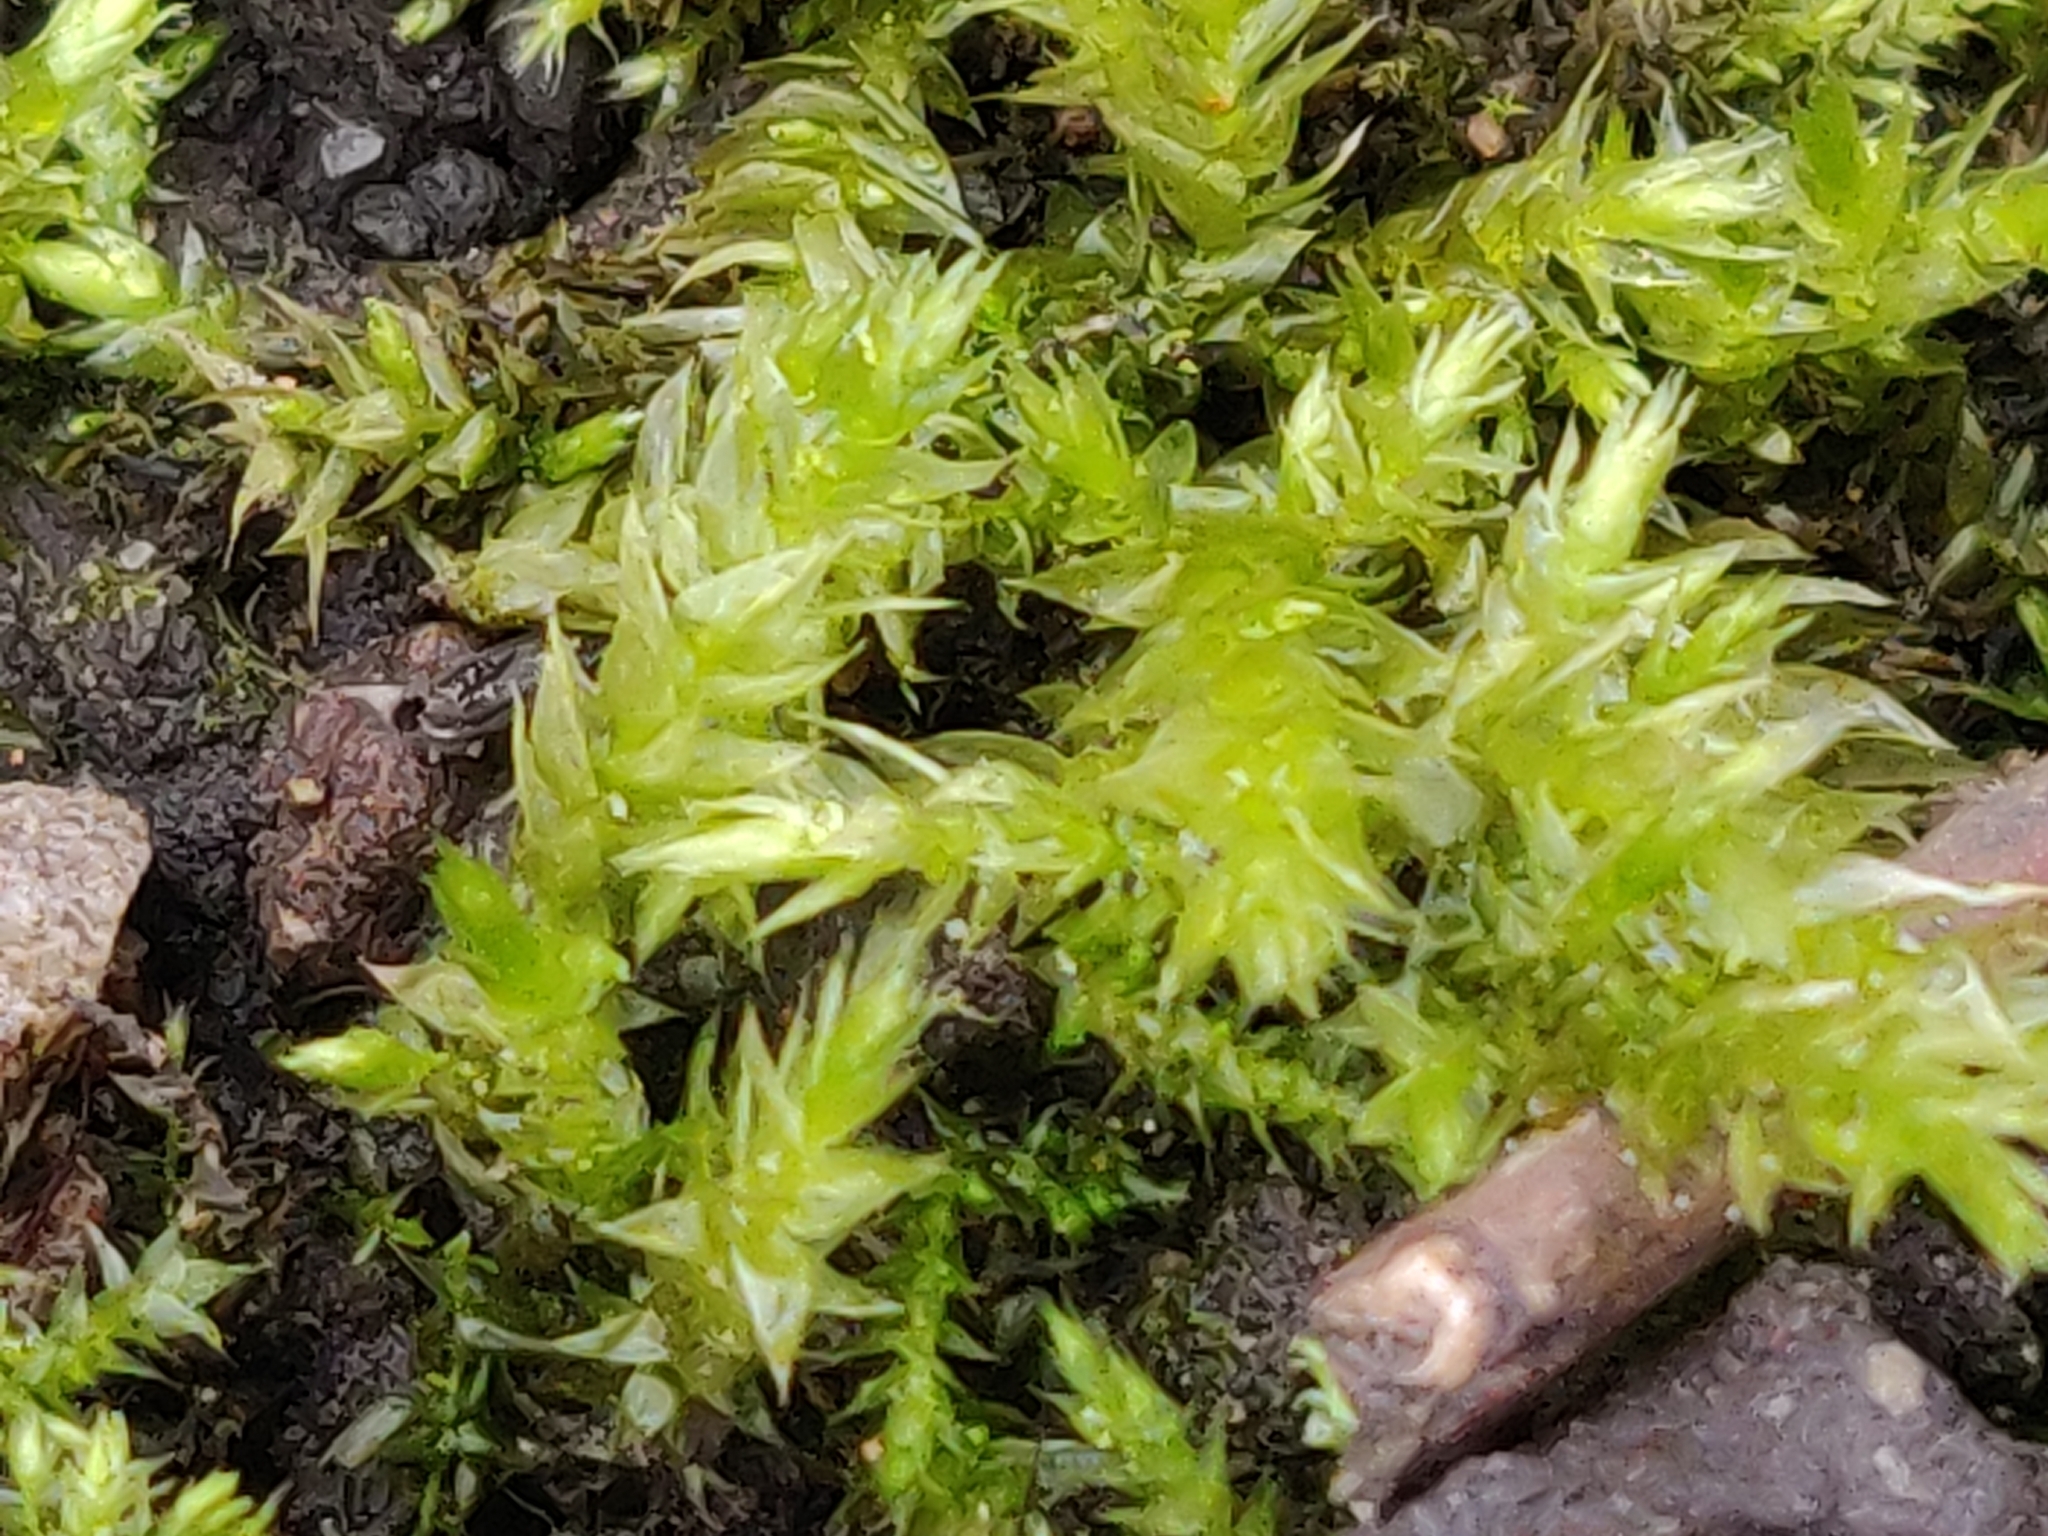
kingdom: Plantae
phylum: Bryophyta
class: Bryopsida
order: Hypnales
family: Brachytheciaceae
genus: Brachythecium
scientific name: Brachythecium rutabulum
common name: Rough-stalked feather-moss
